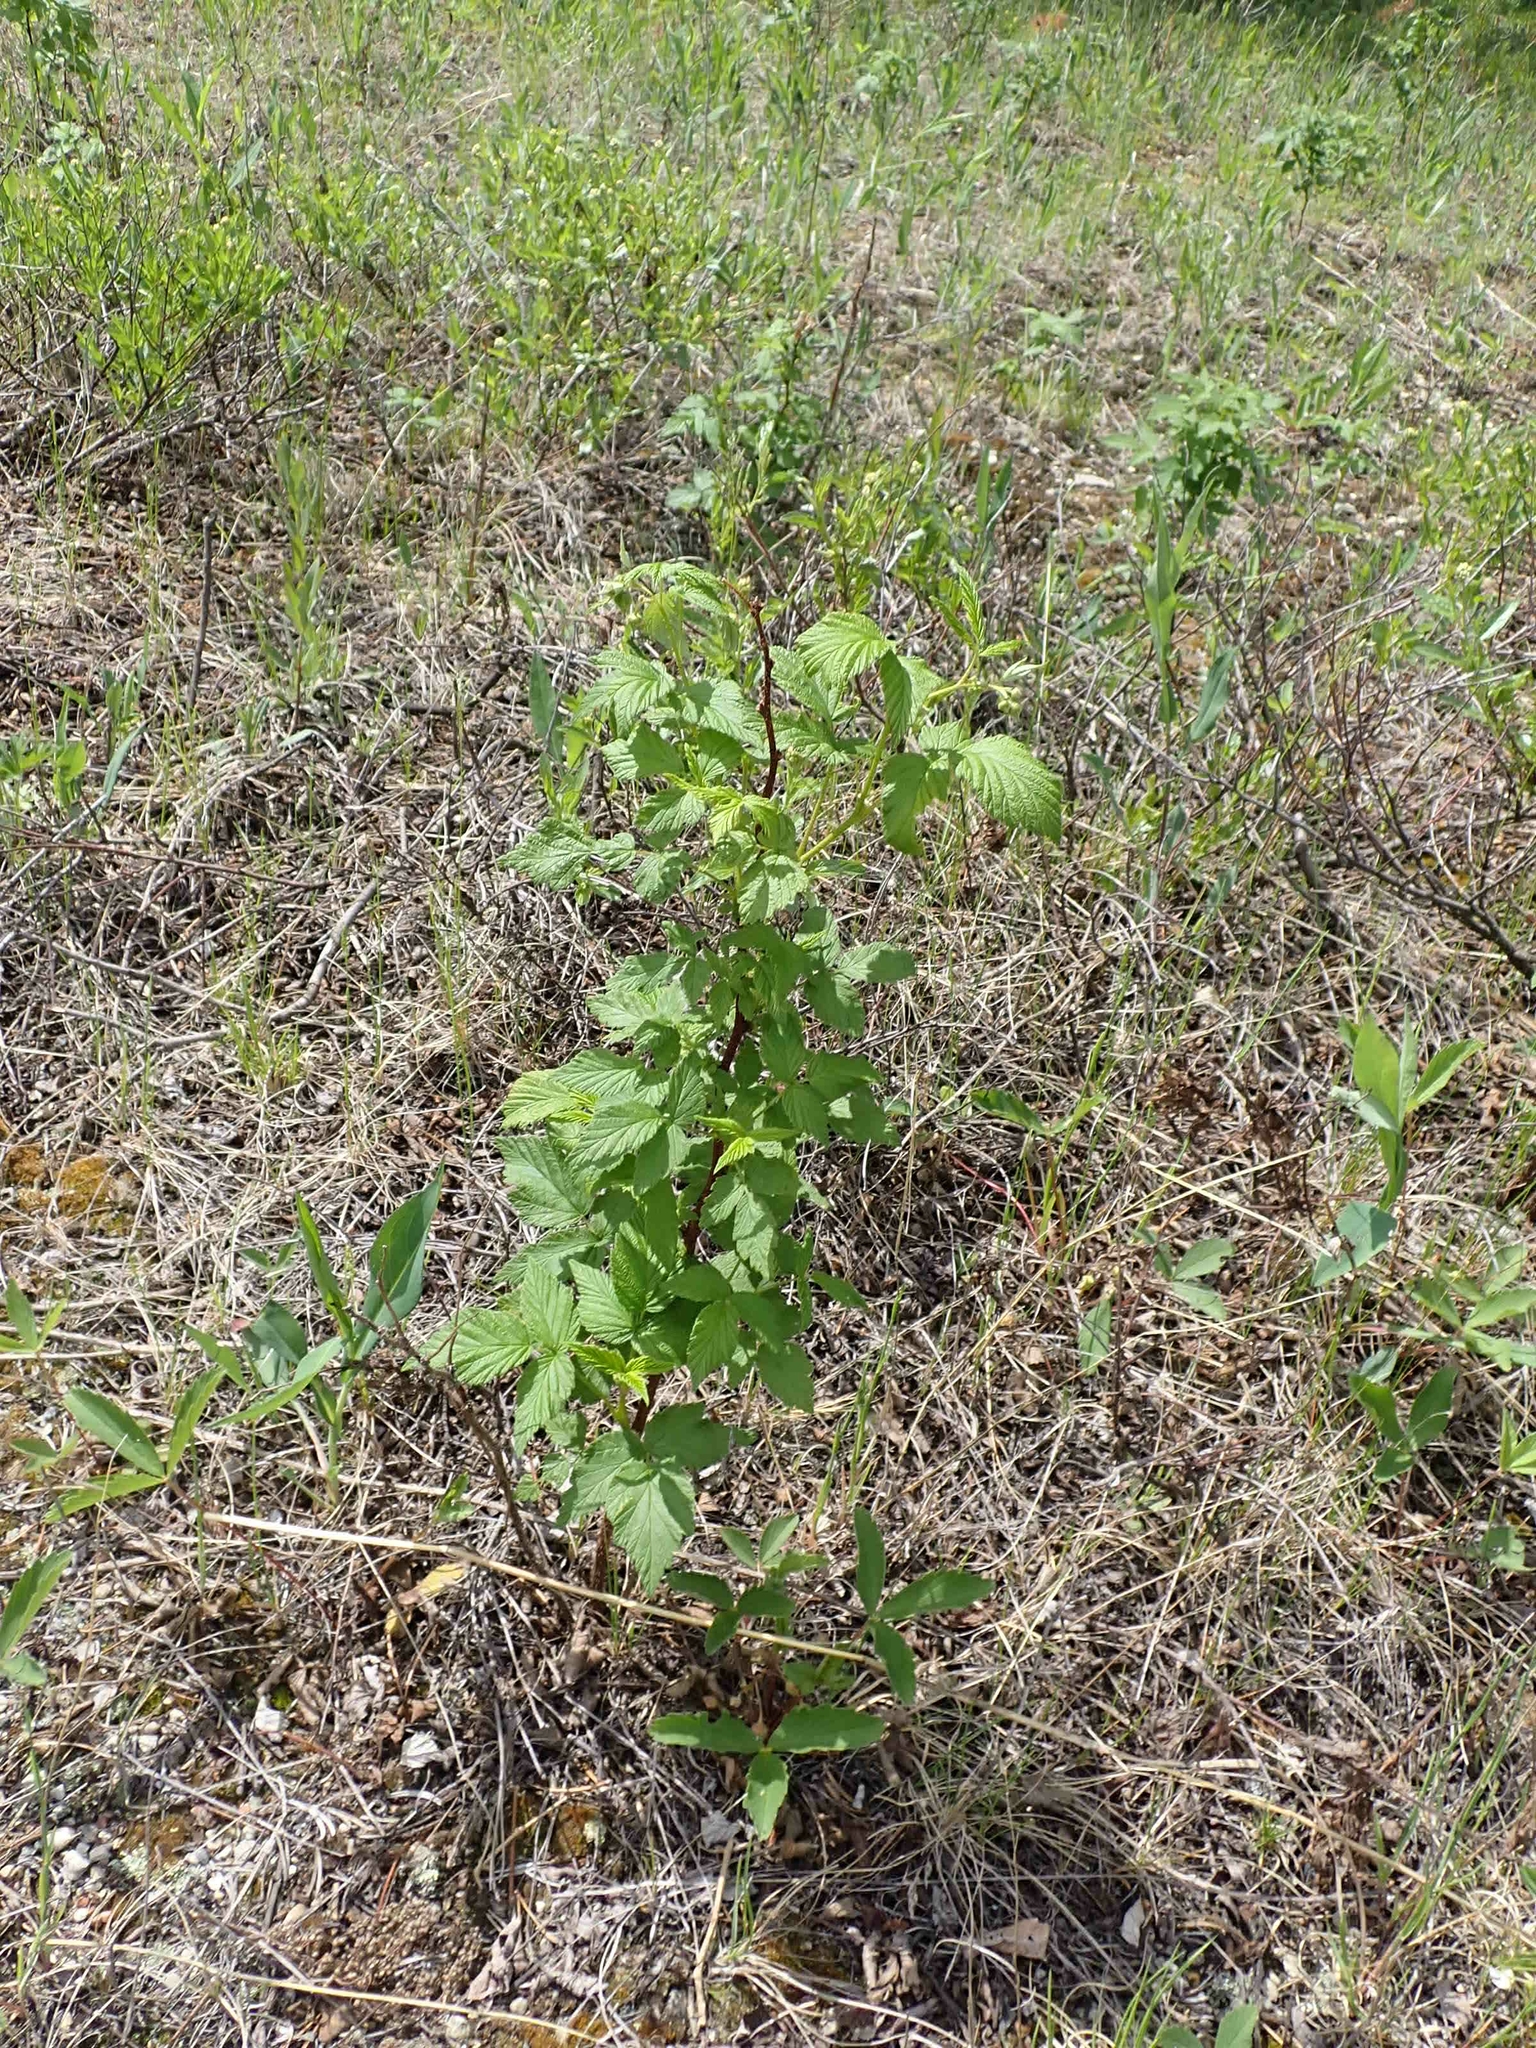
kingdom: Plantae
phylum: Tracheophyta
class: Magnoliopsida
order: Rosales
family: Rosaceae
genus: Rubus
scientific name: Rubus idaeus
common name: Raspberry
